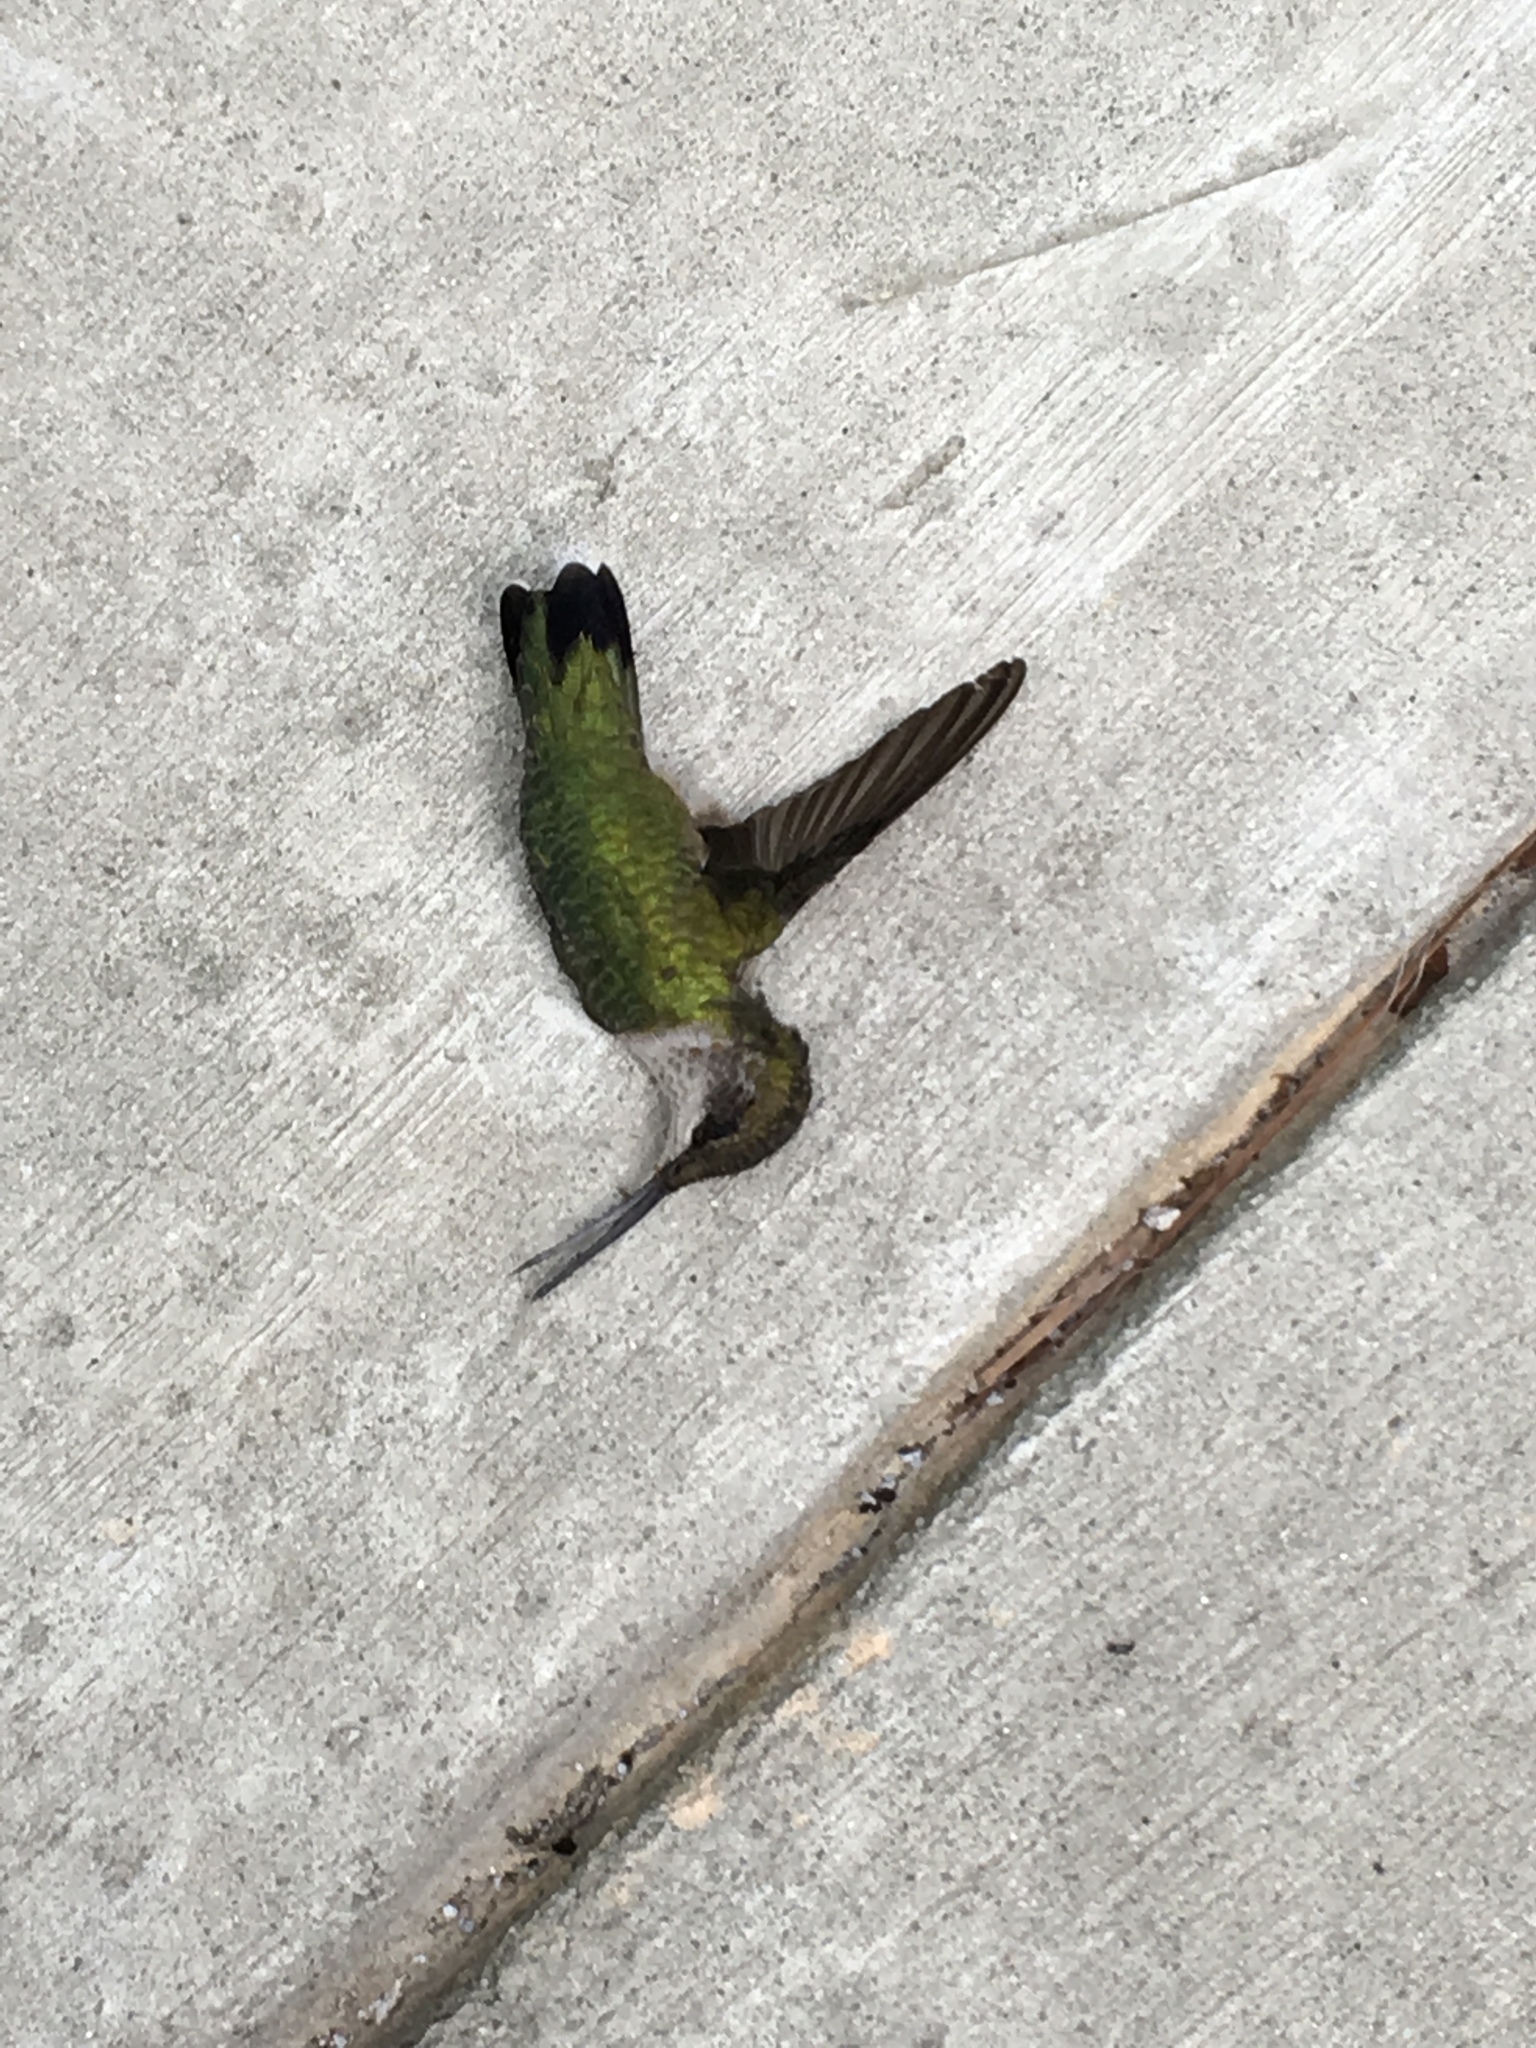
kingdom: Animalia
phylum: Chordata
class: Aves
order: Apodiformes
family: Trochilidae
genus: Archilochus
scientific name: Archilochus colubris
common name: Ruby-throated hummingbird
